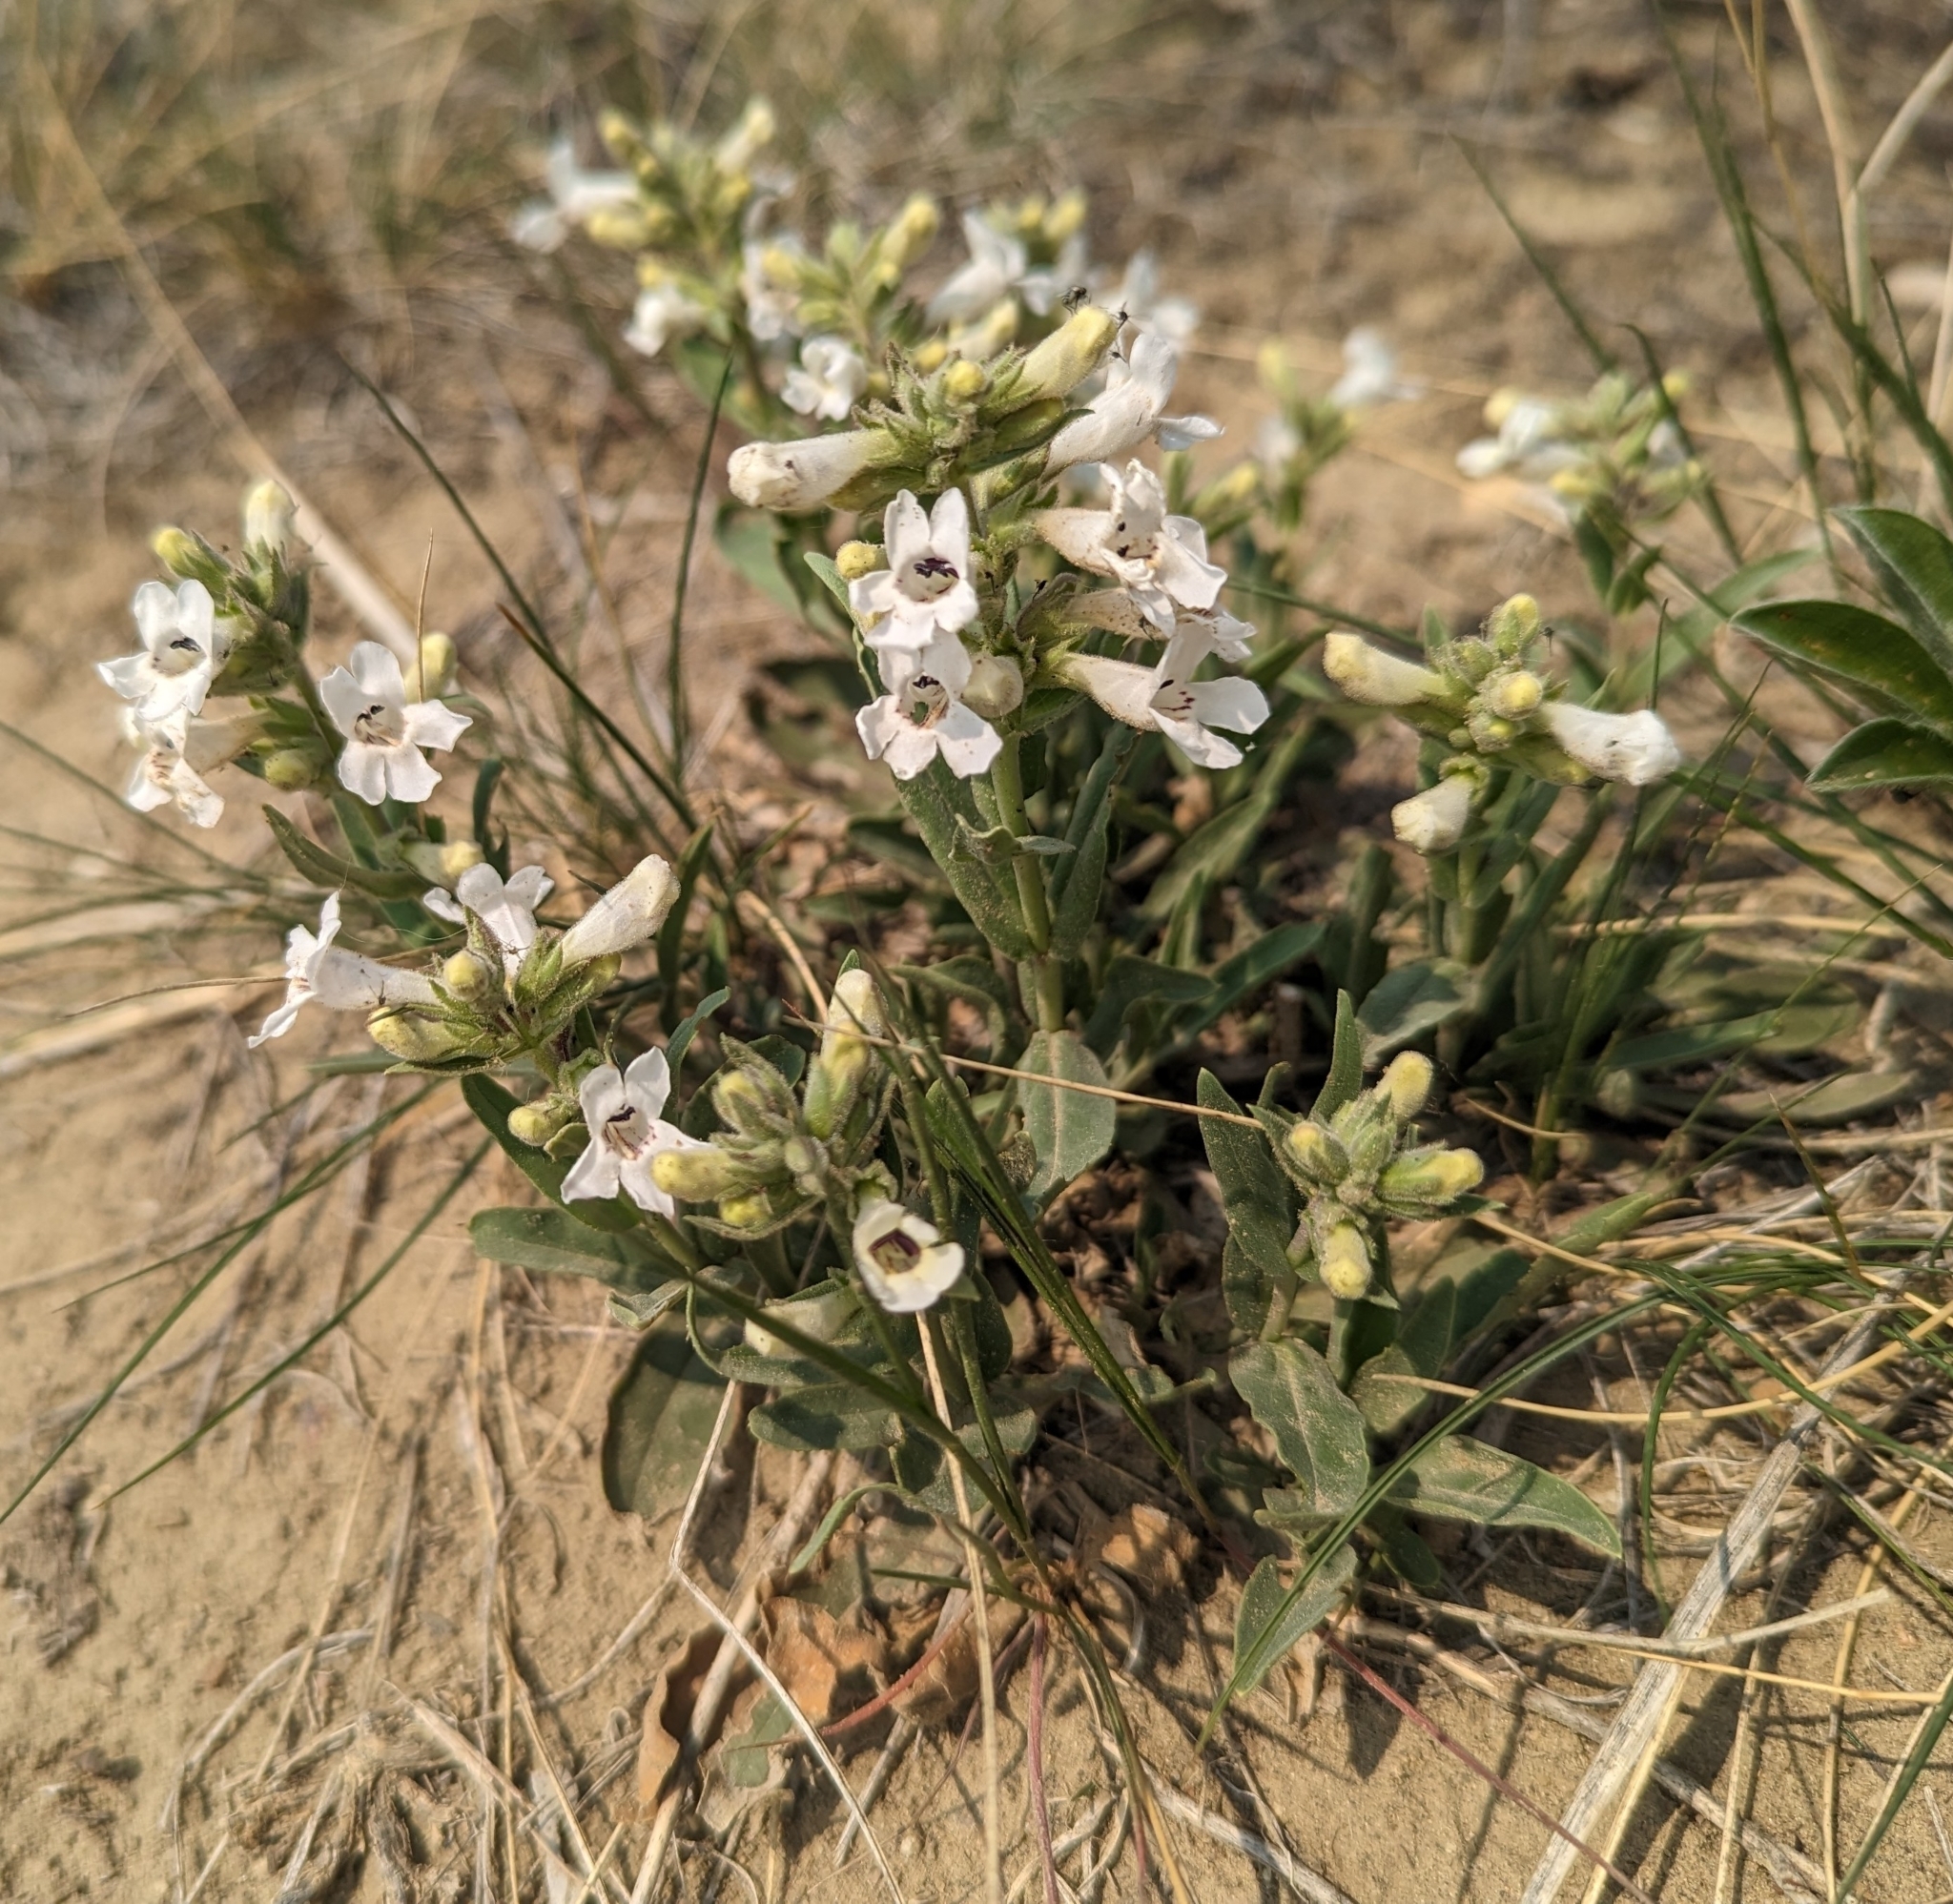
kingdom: Plantae
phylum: Tracheophyta
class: Magnoliopsida
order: Lamiales
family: Plantaginaceae
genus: Penstemon
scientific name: Penstemon albidus
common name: White beardtongue
